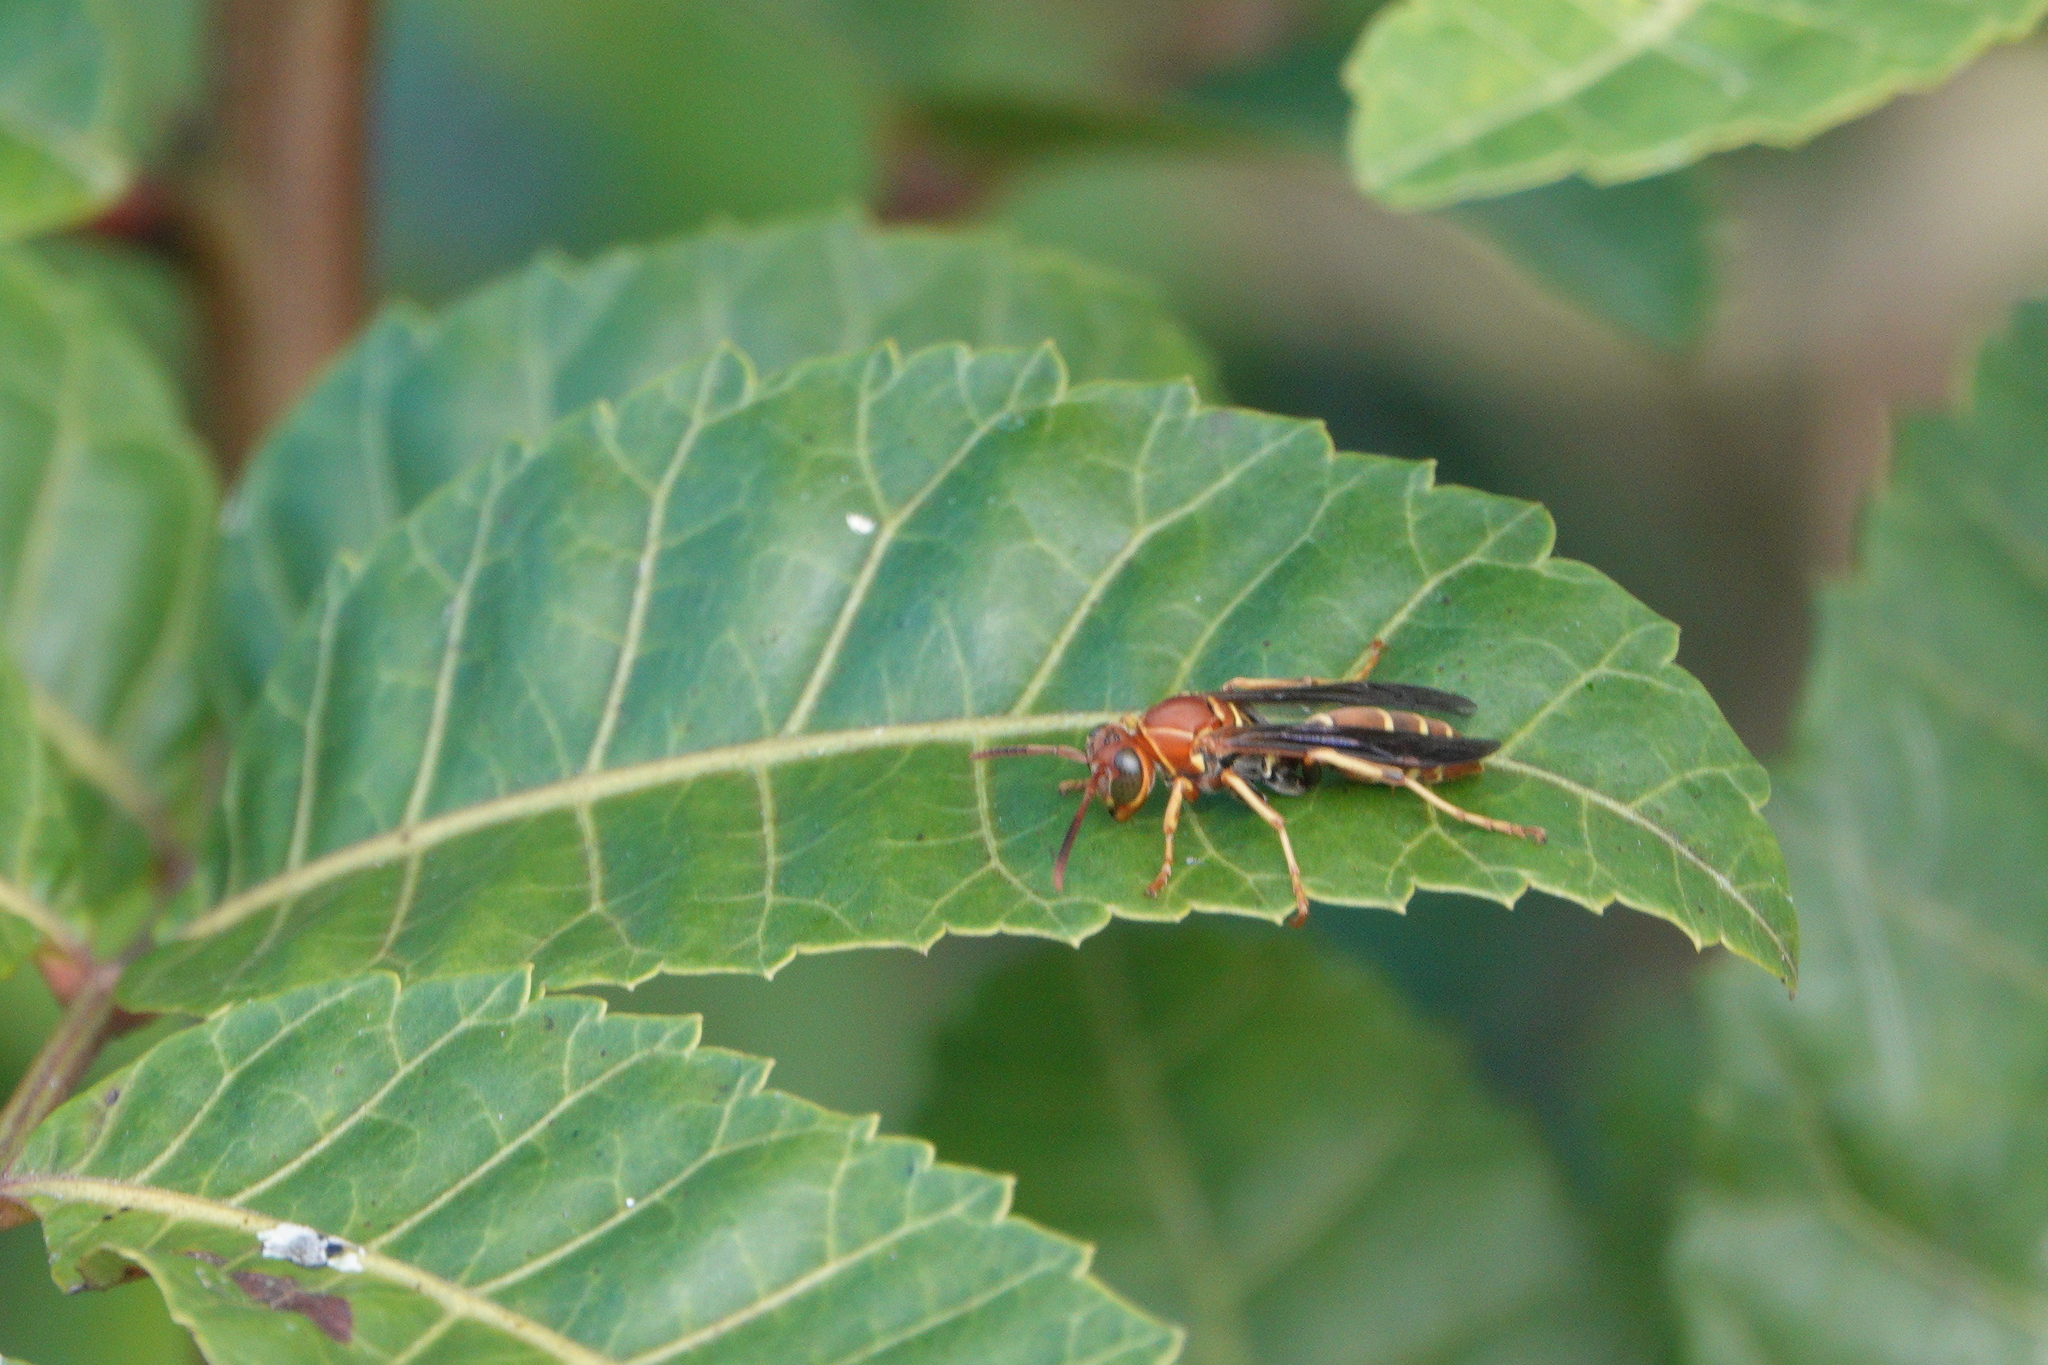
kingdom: Animalia
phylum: Arthropoda
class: Insecta
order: Odonata
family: Libellulidae
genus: Brachymesia
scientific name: Brachymesia gravida
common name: Four-spotted pennant
